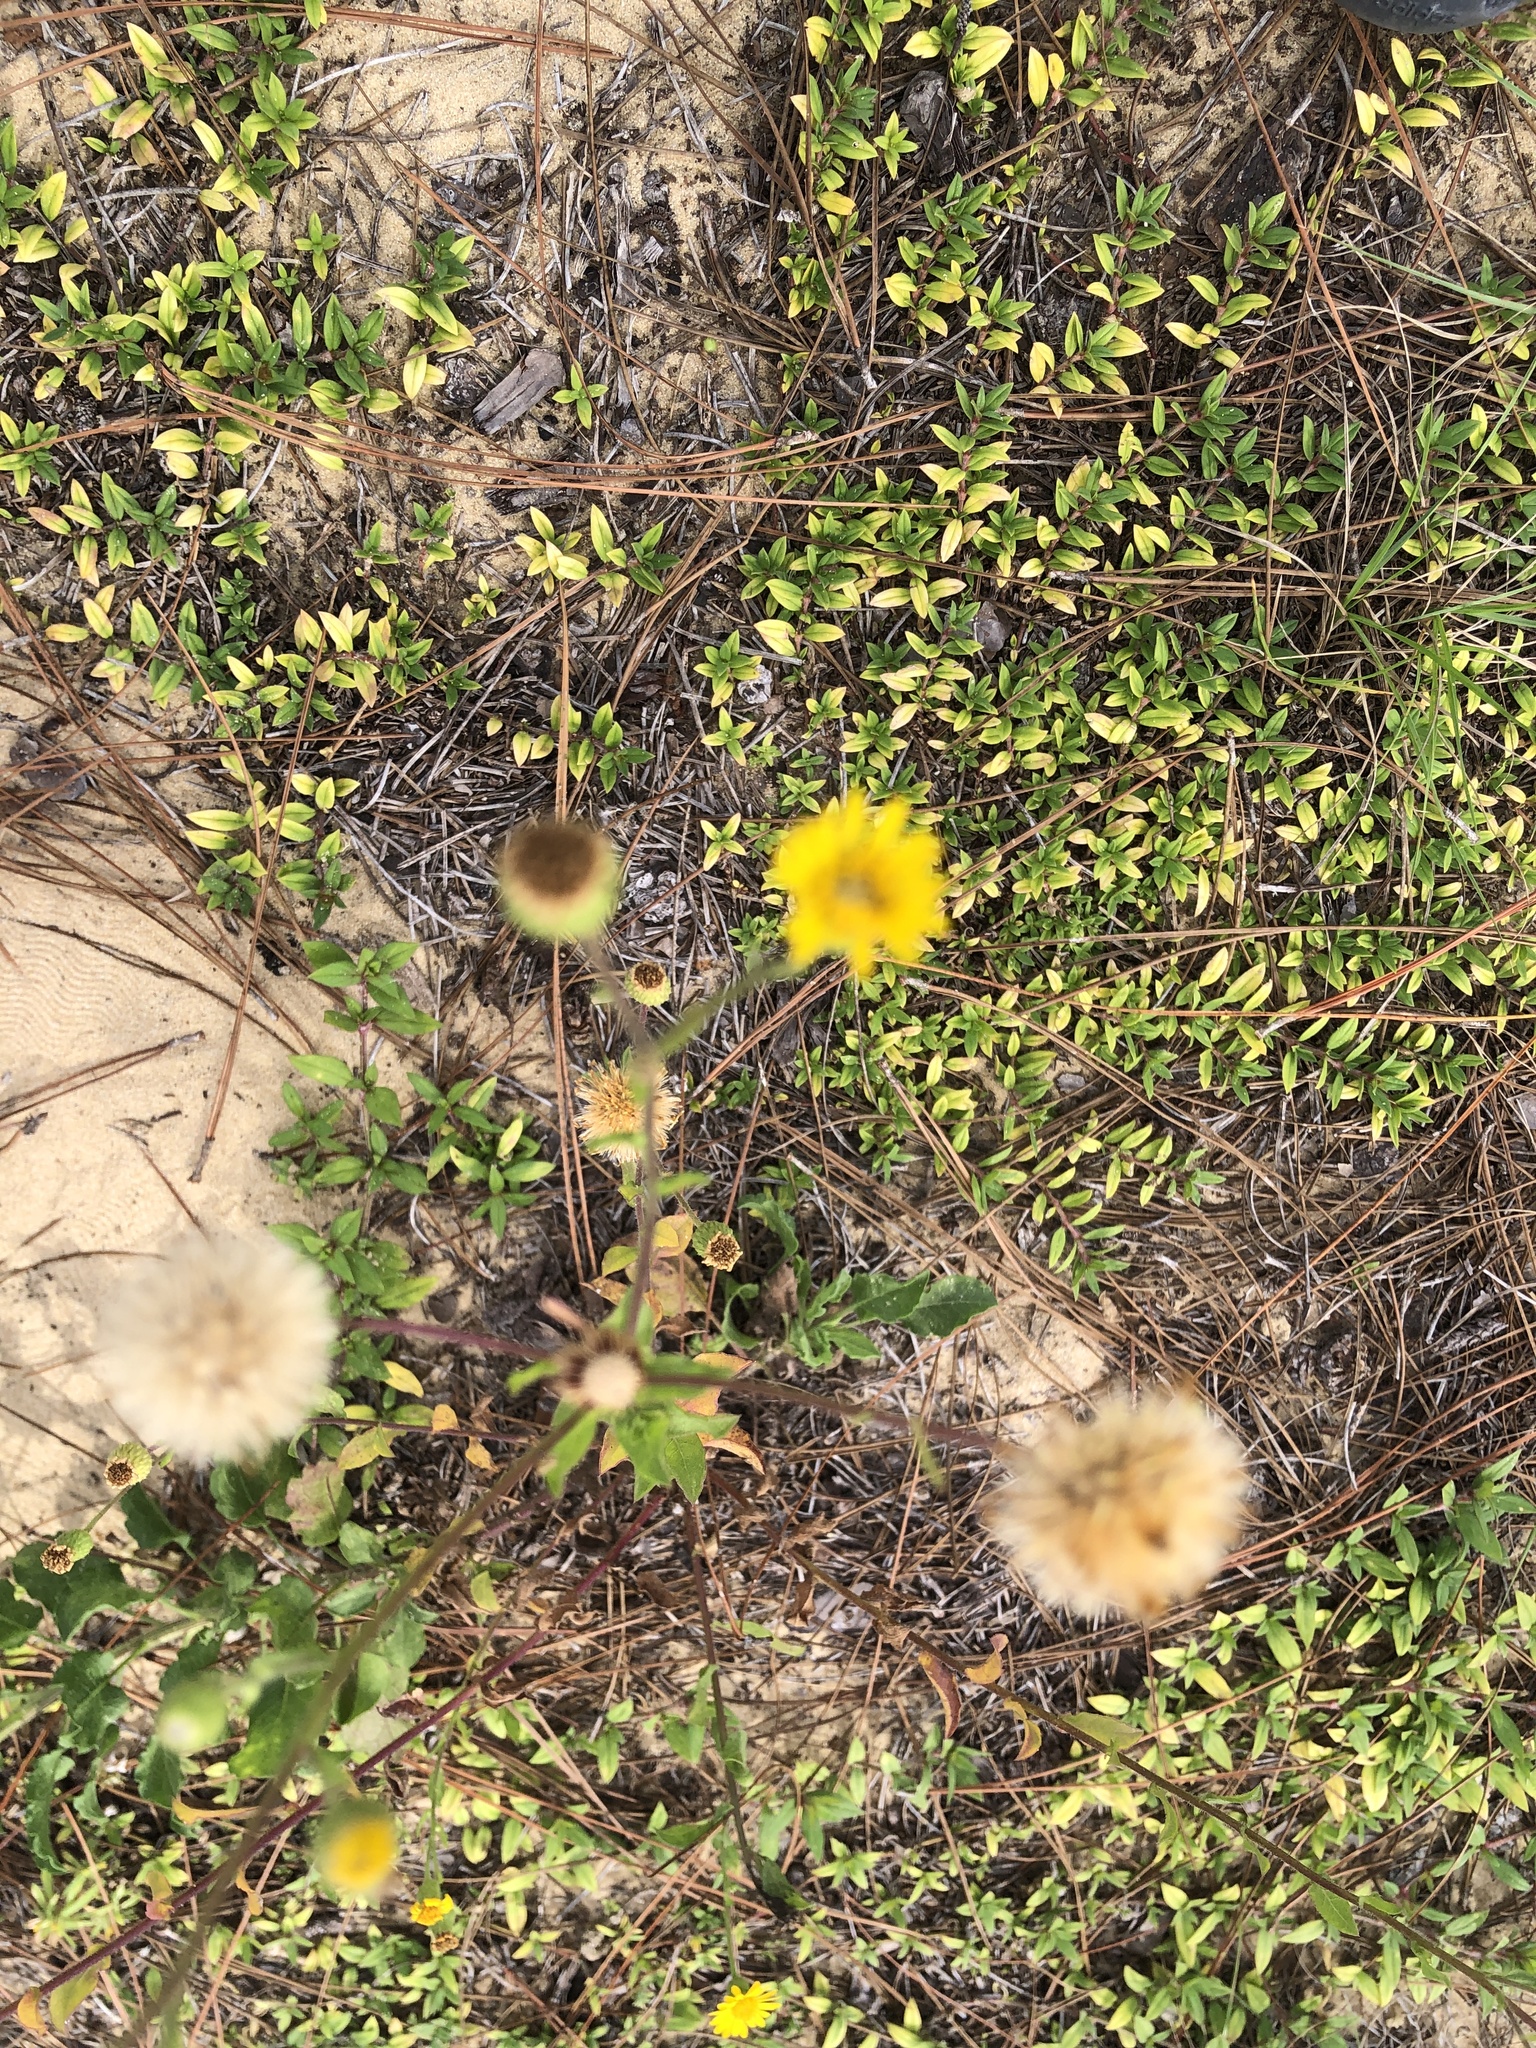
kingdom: Plantae
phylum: Tracheophyta
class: Magnoliopsida
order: Asterales
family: Asteraceae
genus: Heterotheca
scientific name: Heterotheca subaxillaris
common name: Camphorweed
